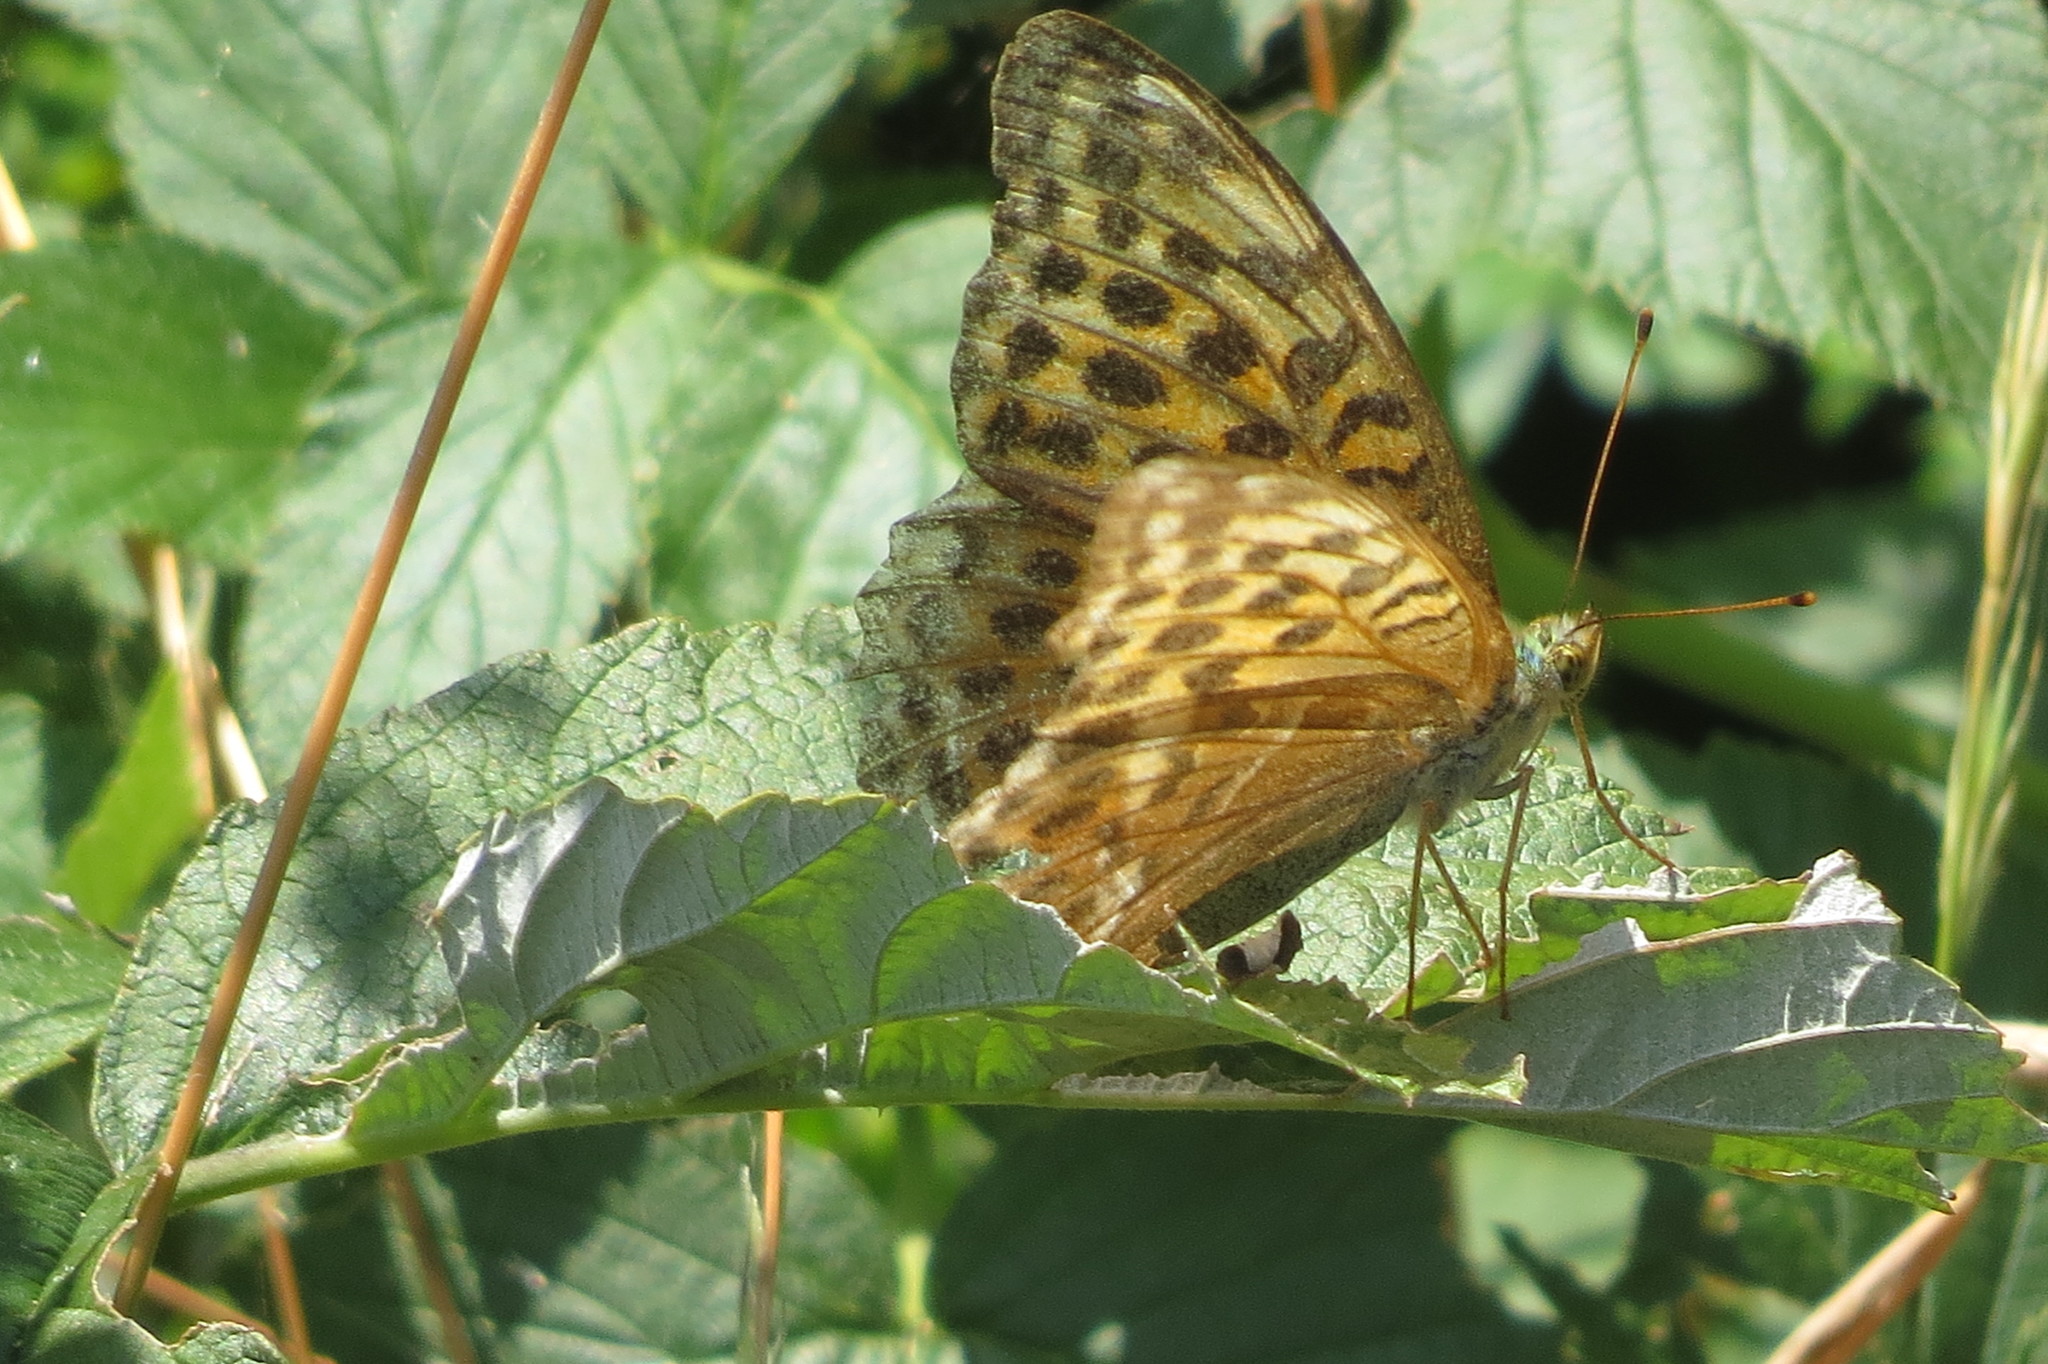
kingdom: Animalia
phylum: Arthropoda
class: Insecta
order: Lepidoptera
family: Nymphalidae
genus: Argynnis
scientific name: Argynnis paphia
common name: Silver-washed fritillary
